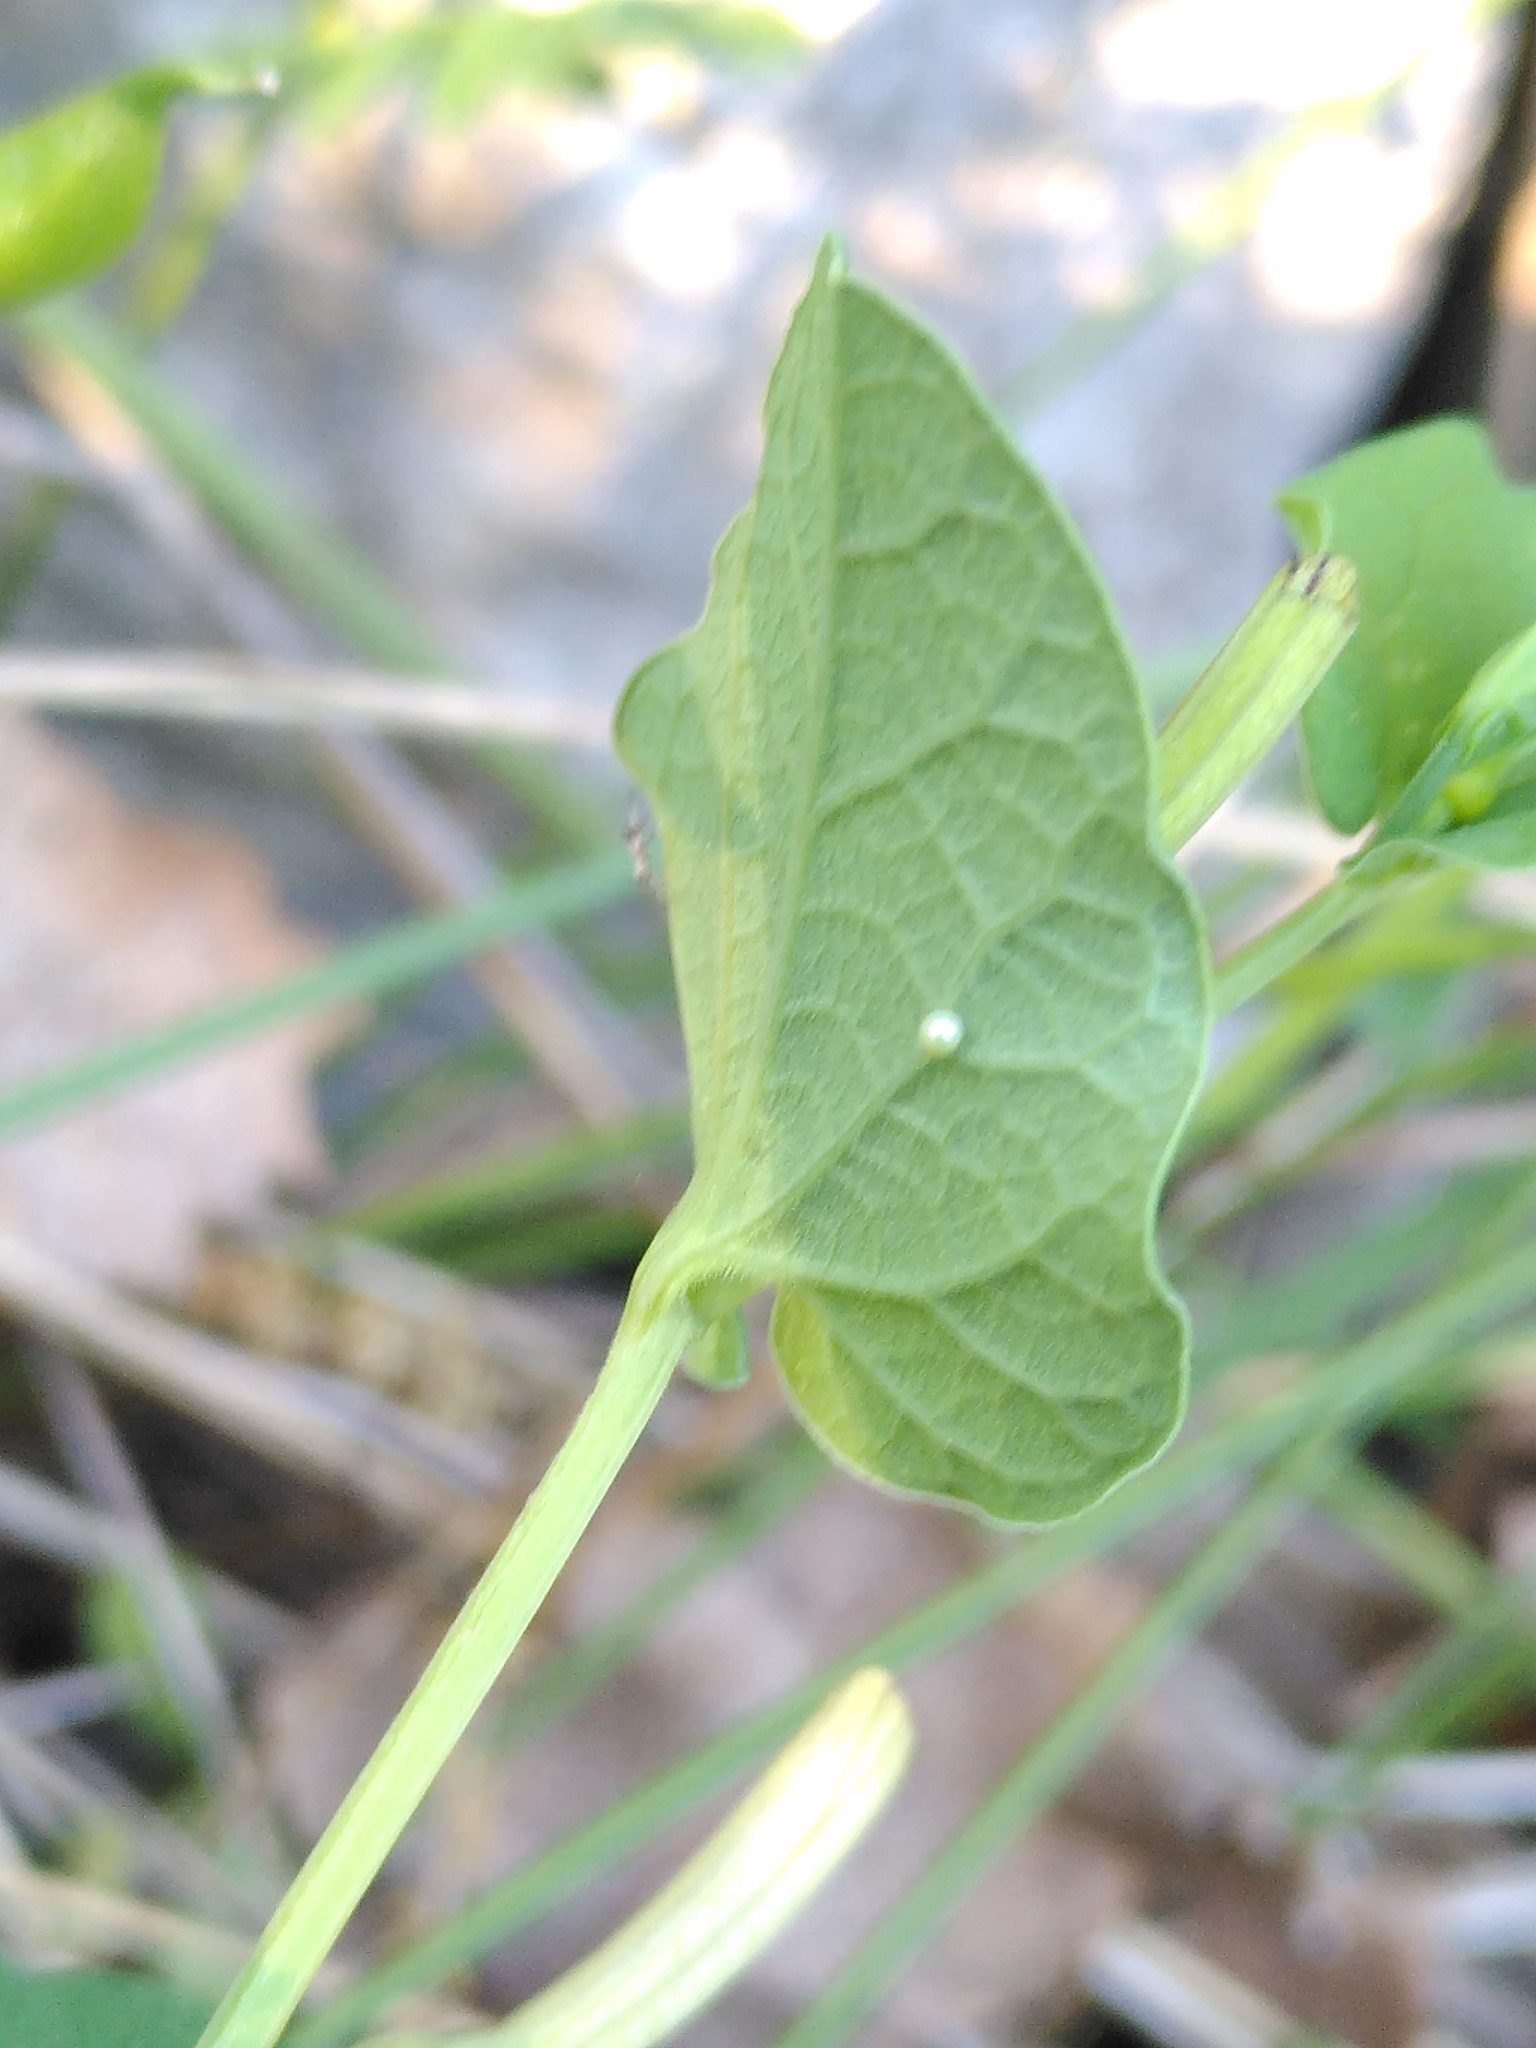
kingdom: Animalia
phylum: Arthropoda
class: Insecta
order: Lepidoptera
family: Papilionidae
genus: Zerynthia
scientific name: Zerynthia polyxena
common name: Southern festoon
